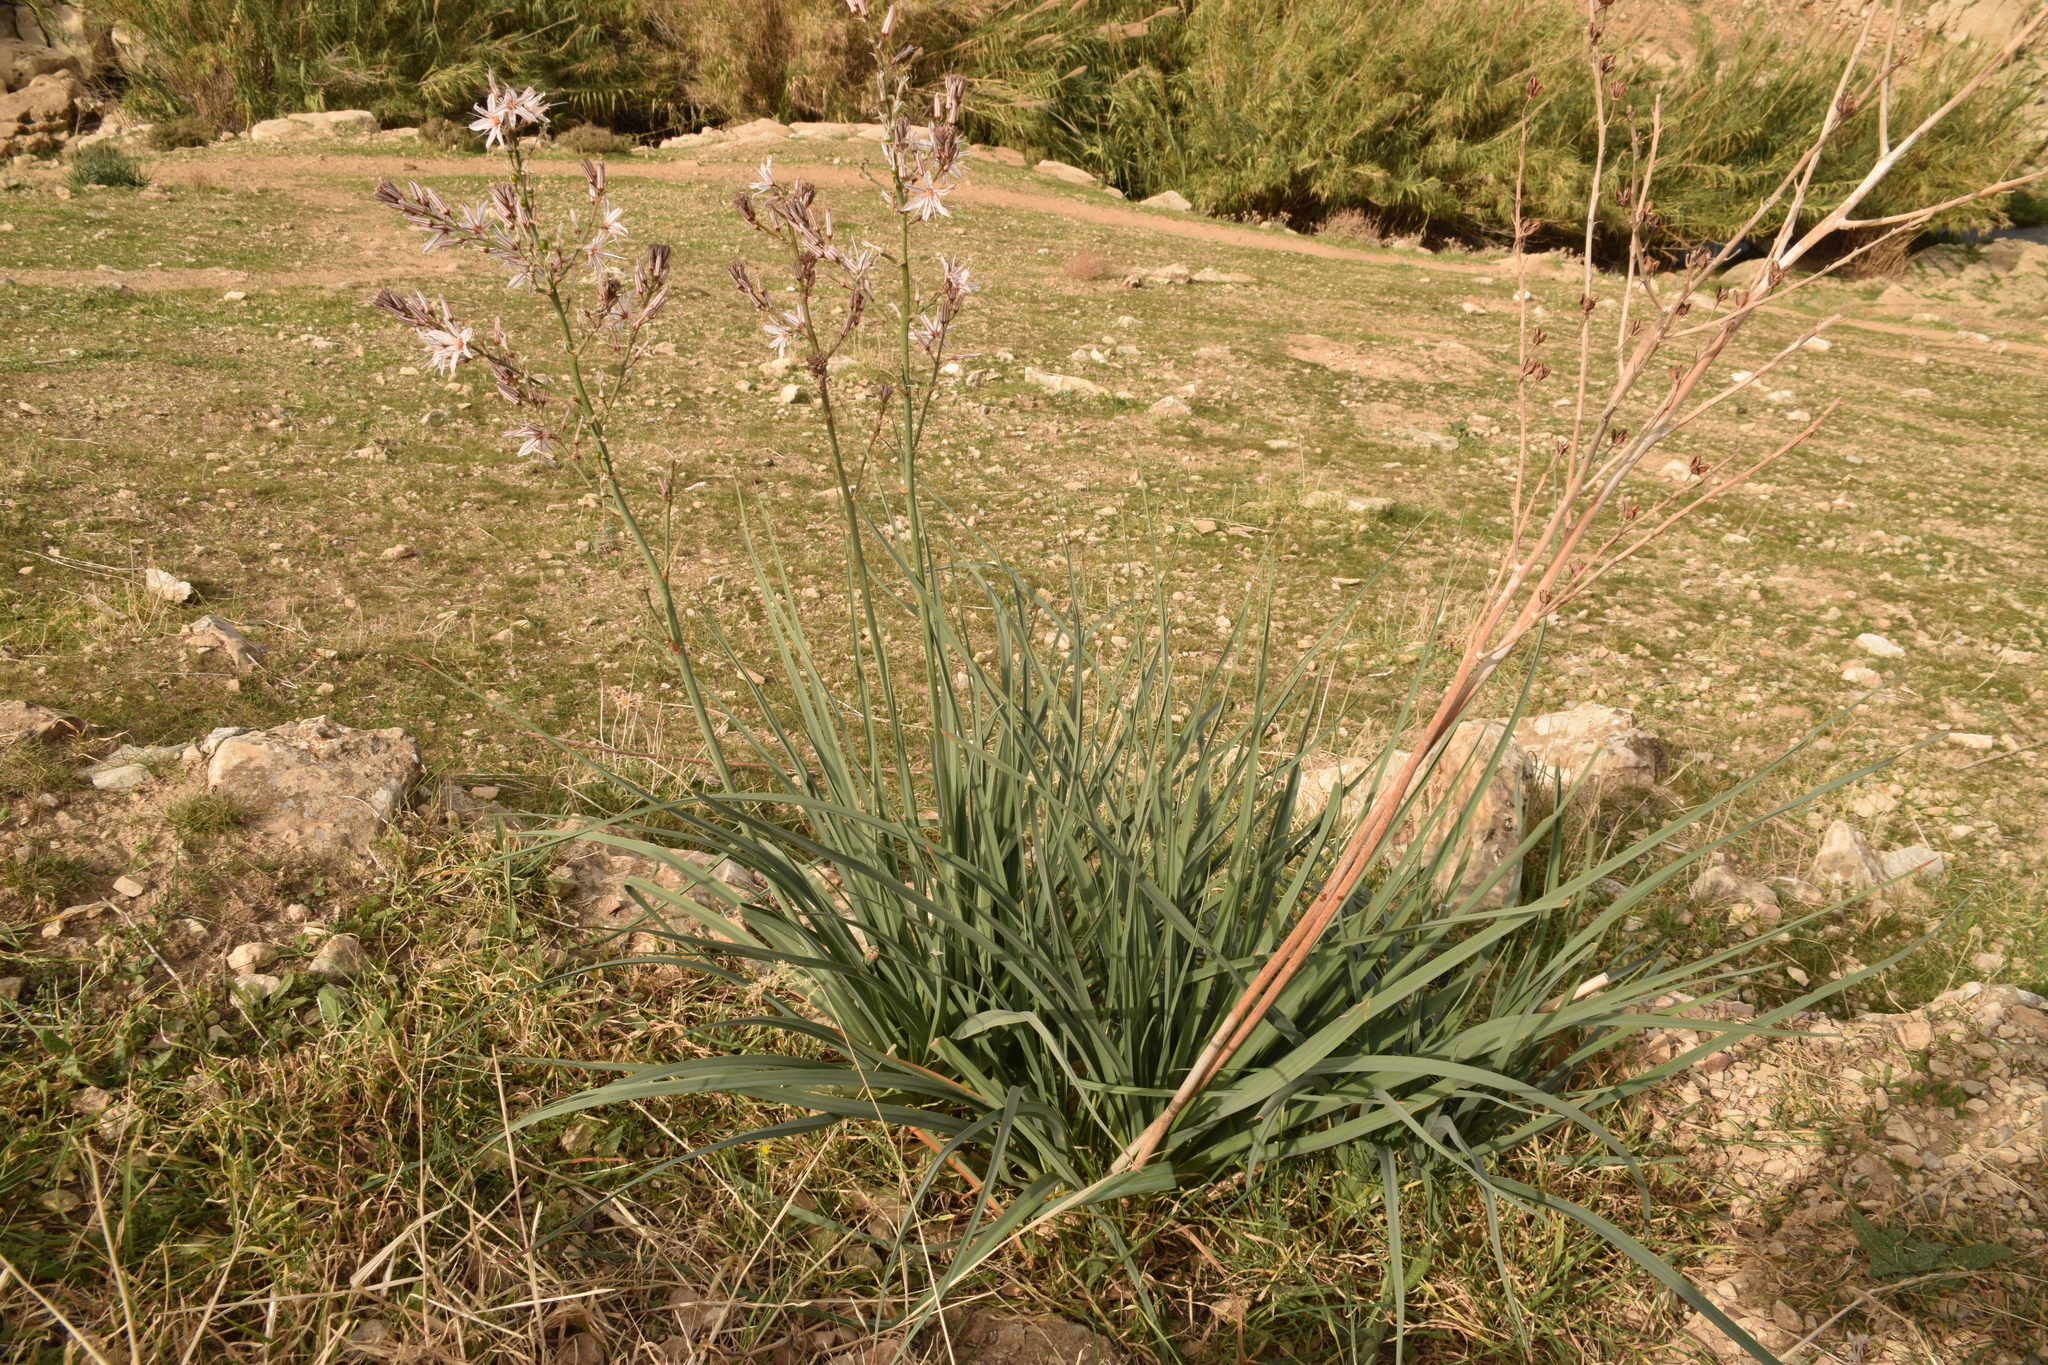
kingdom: Plantae
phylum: Tracheophyta
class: Liliopsida
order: Asparagales
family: Asphodelaceae
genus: Asphodelus
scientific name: Asphodelus ramosus
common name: Silverrod
